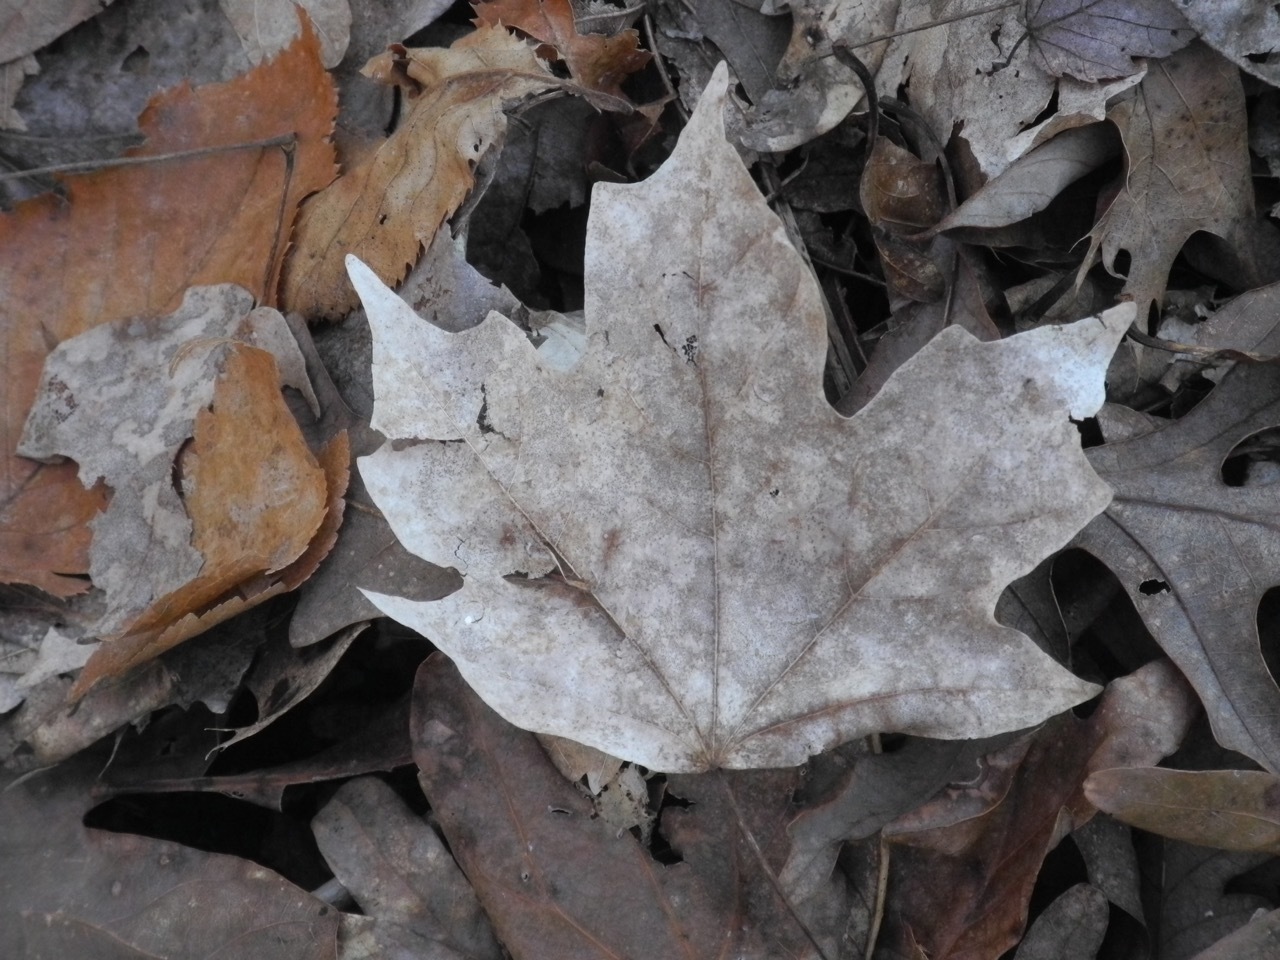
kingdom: Plantae
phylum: Tracheophyta
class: Magnoliopsida
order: Sapindales
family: Sapindaceae
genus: Acer
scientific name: Acer floridanum
